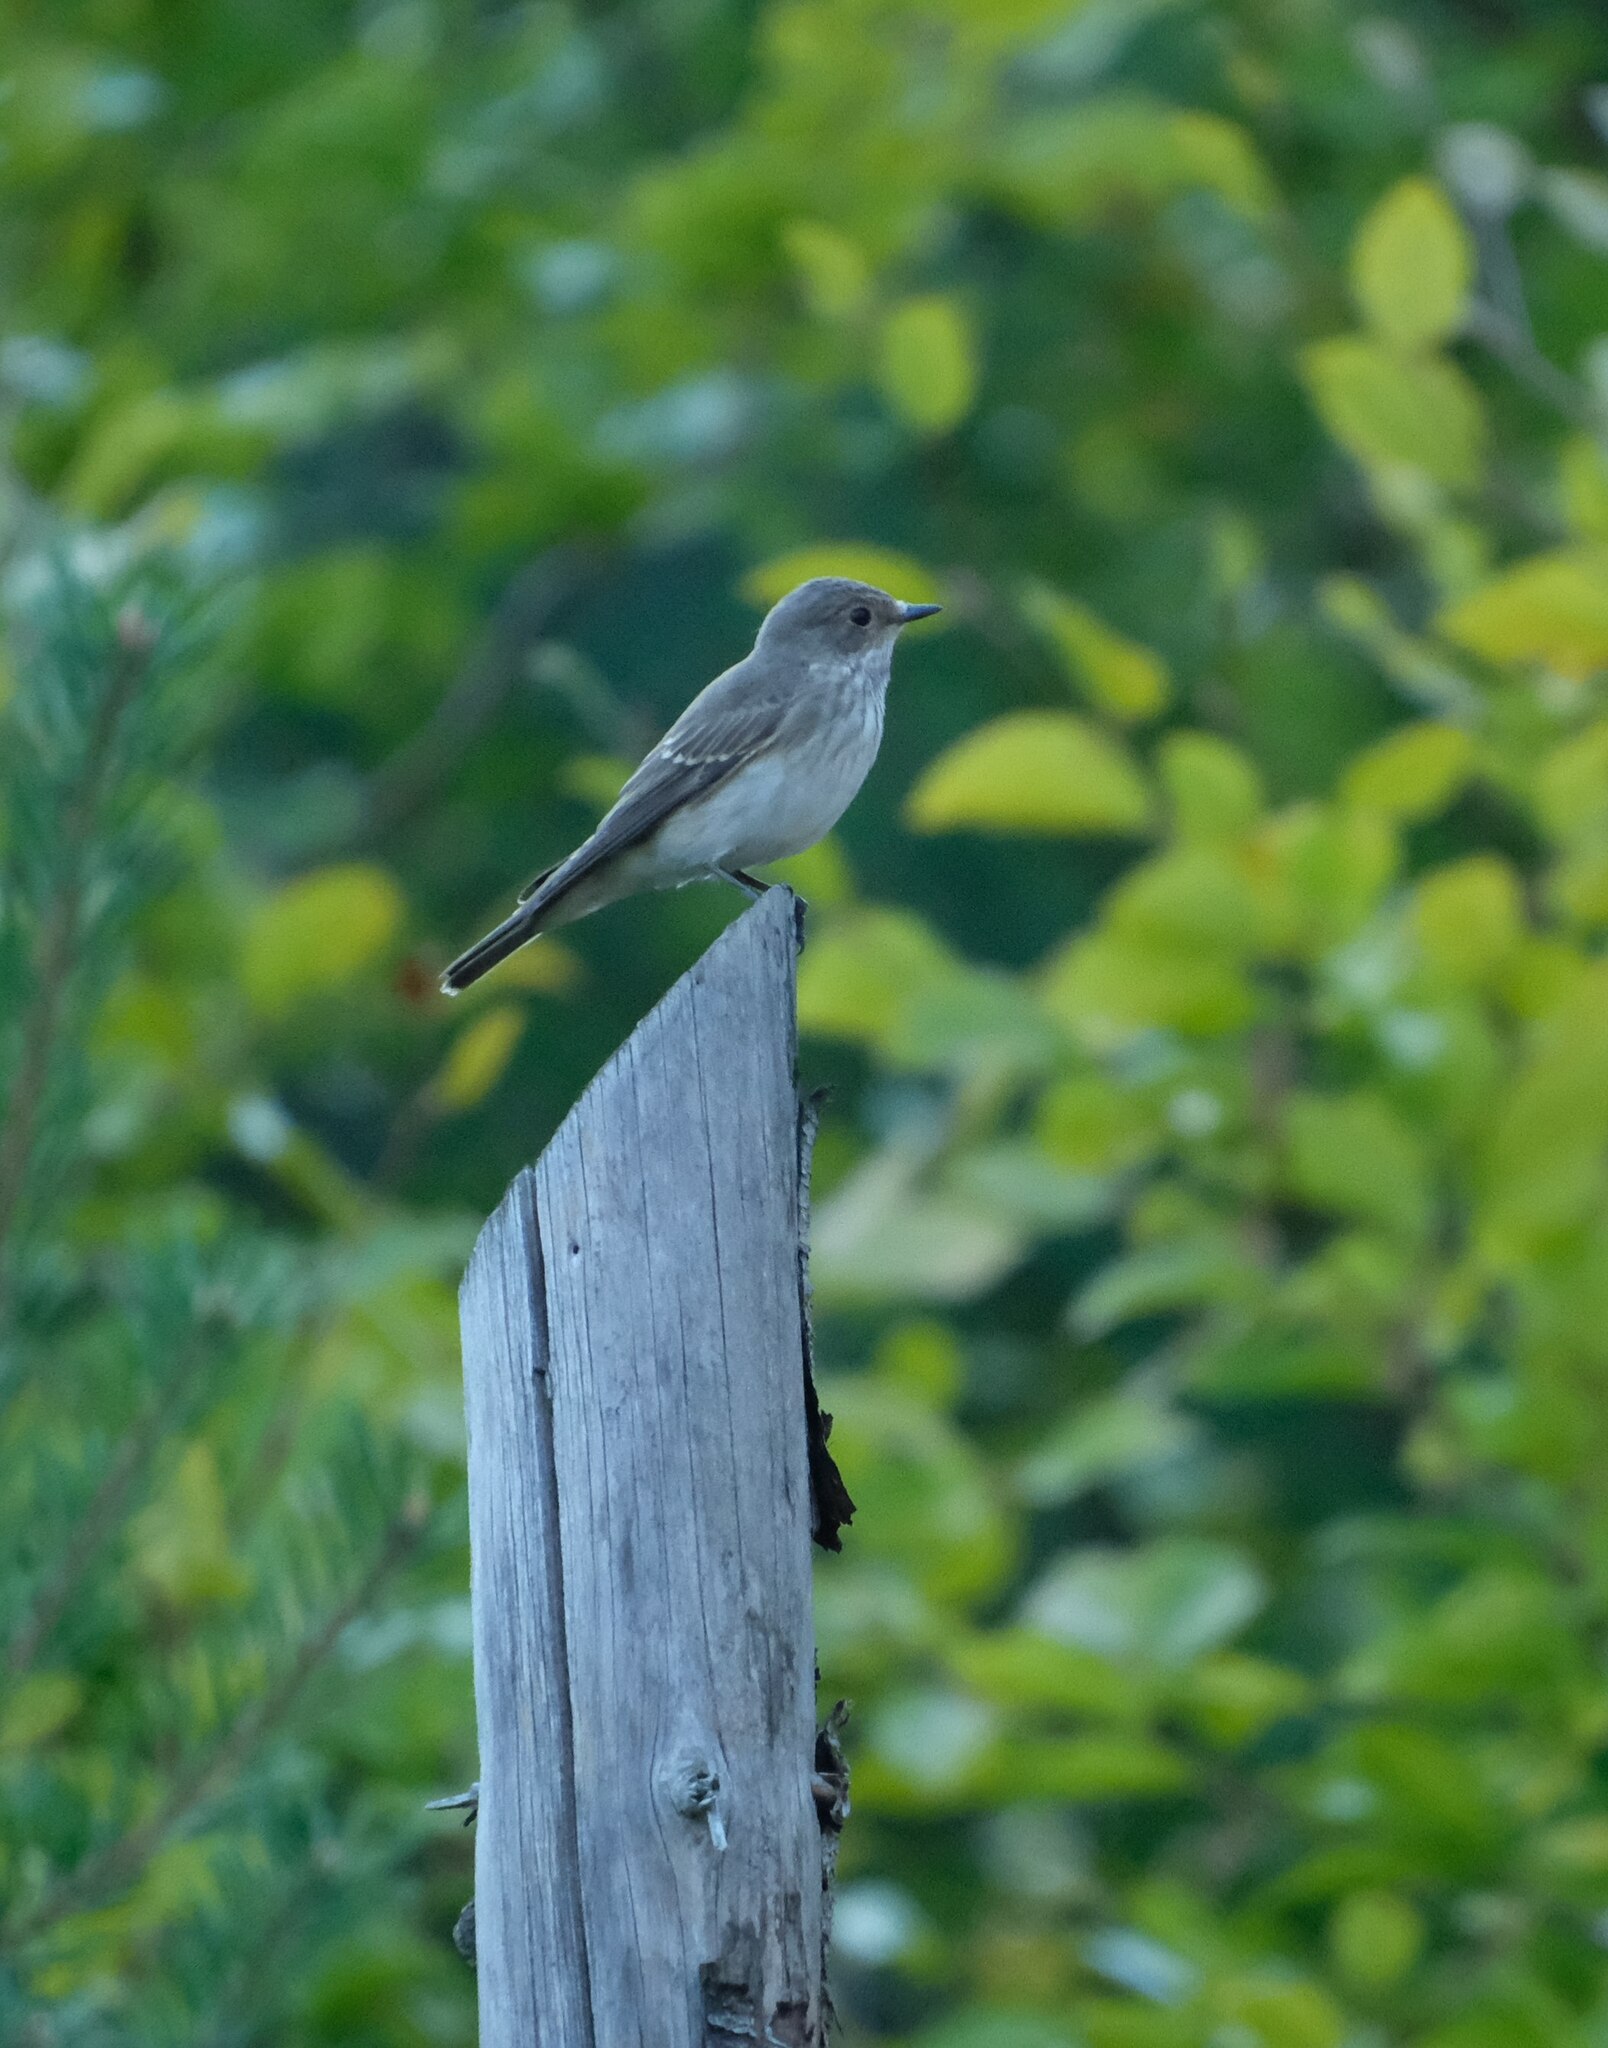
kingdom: Animalia
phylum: Chordata
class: Aves
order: Passeriformes
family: Muscicapidae
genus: Muscicapa
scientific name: Muscicapa striata
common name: Spotted flycatcher
